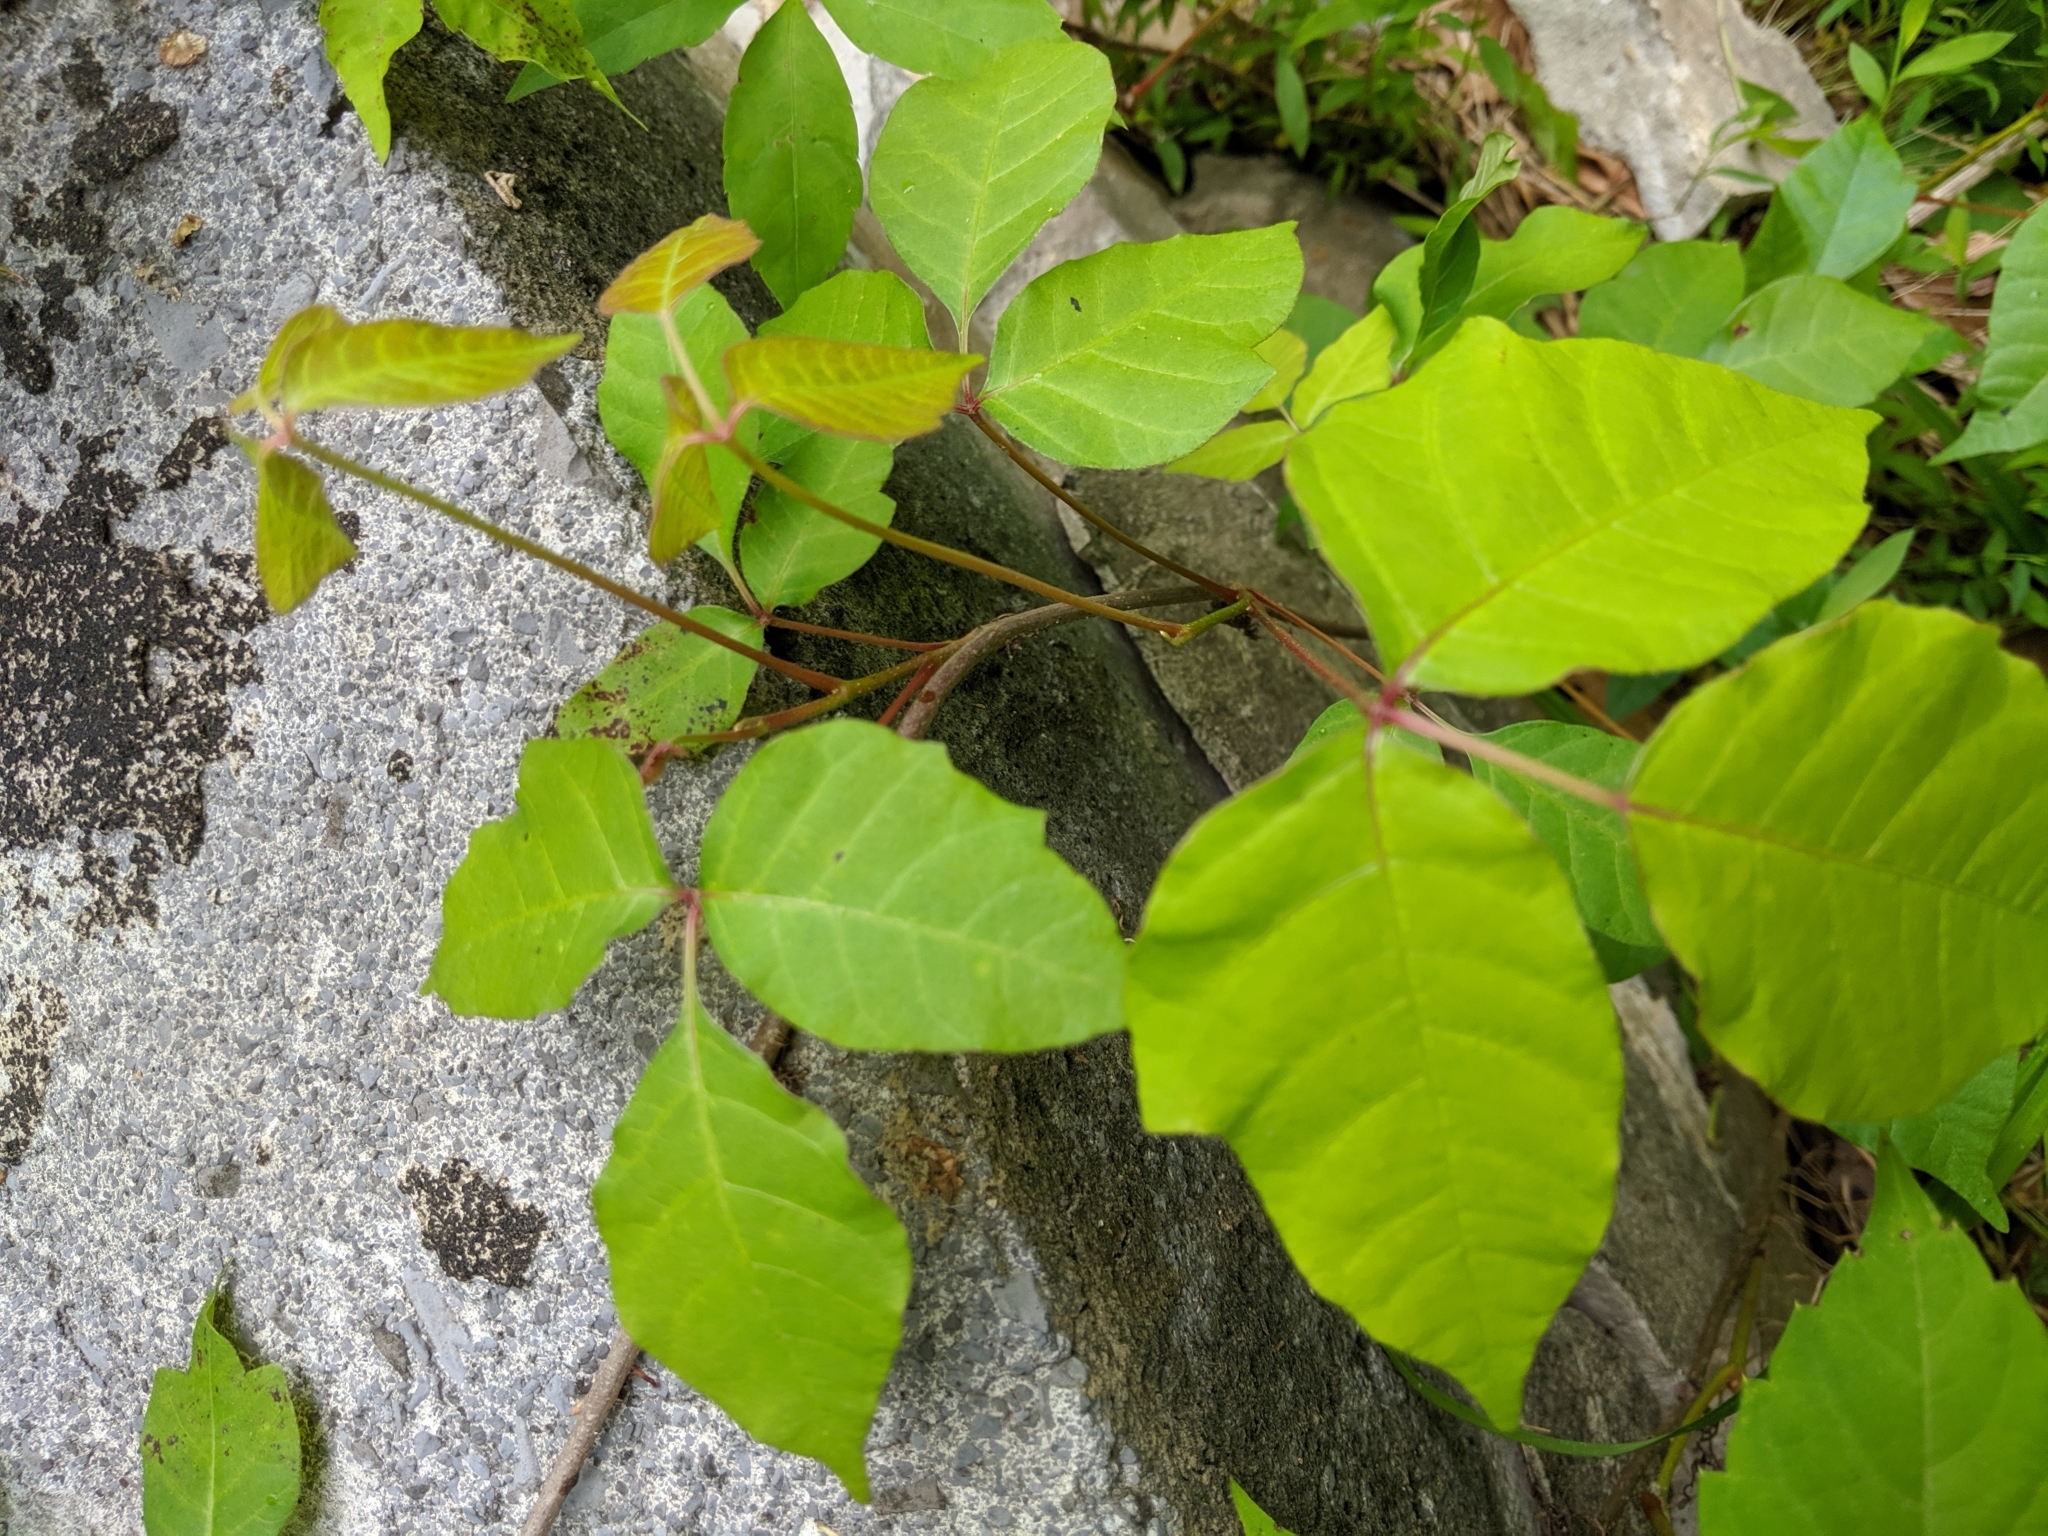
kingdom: Plantae
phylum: Tracheophyta
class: Magnoliopsida
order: Sapindales
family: Anacardiaceae
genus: Toxicodendron
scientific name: Toxicodendron radicans
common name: Poison ivy
